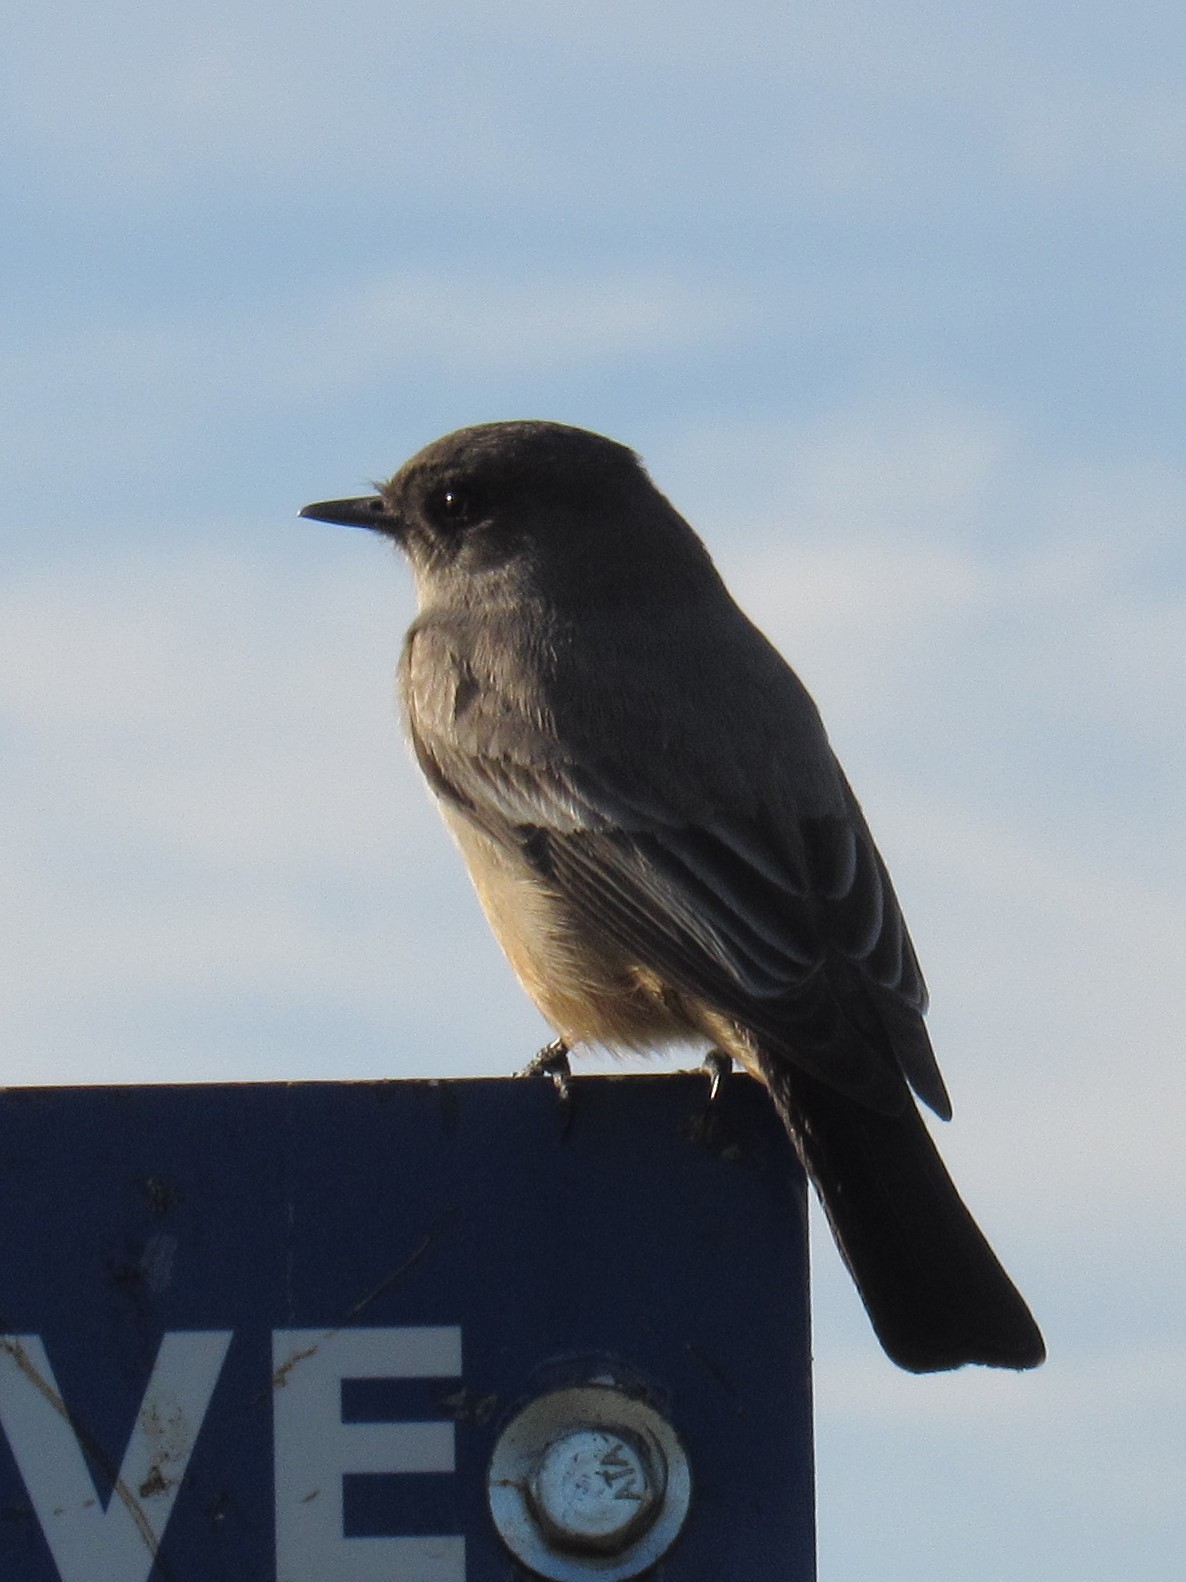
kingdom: Animalia
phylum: Chordata
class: Aves
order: Passeriformes
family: Tyrannidae
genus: Sayornis
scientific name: Sayornis saya
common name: Say's phoebe
